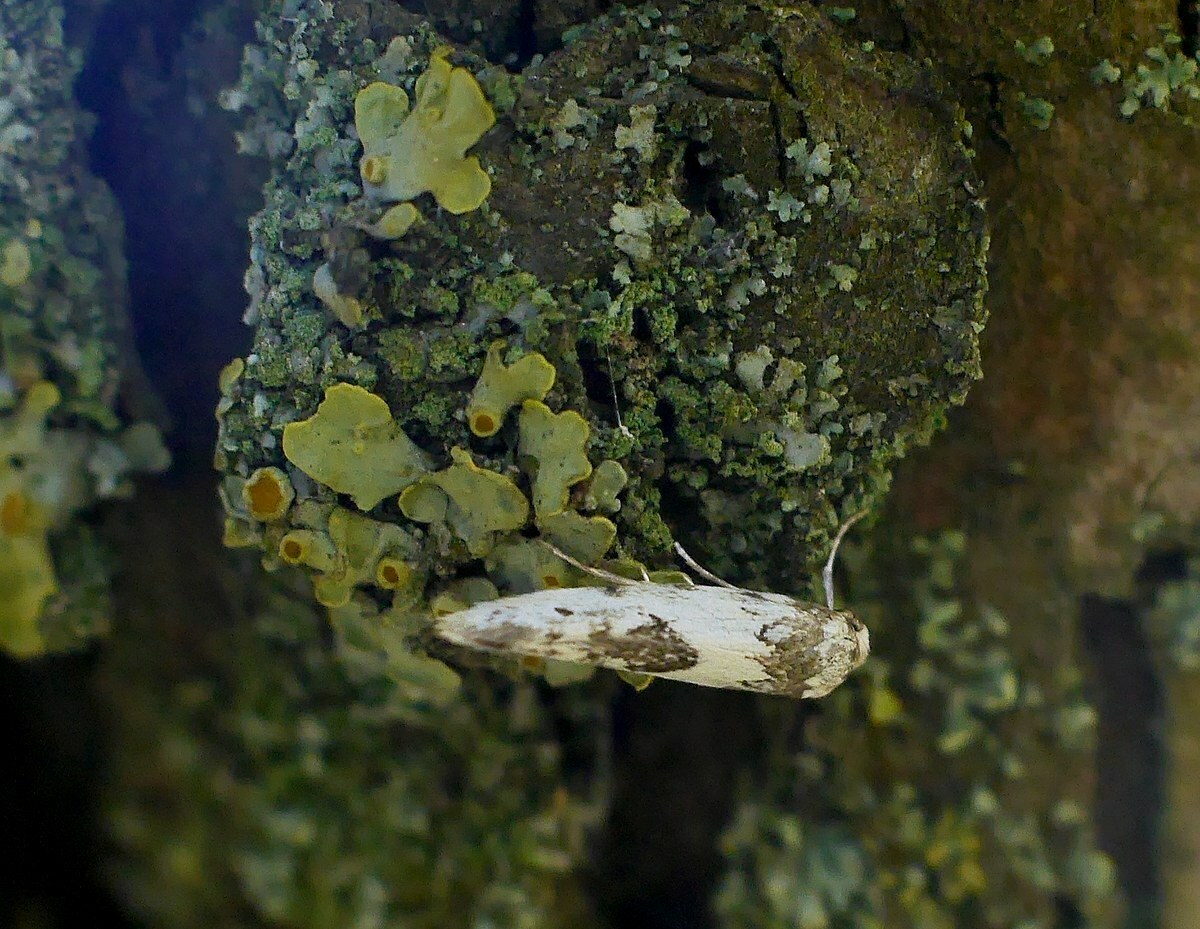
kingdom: Animalia
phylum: Arthropoda
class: Insecta
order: Lepidoptera
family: Scythrididae
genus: Episcythris
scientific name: Episcythris triangulella
